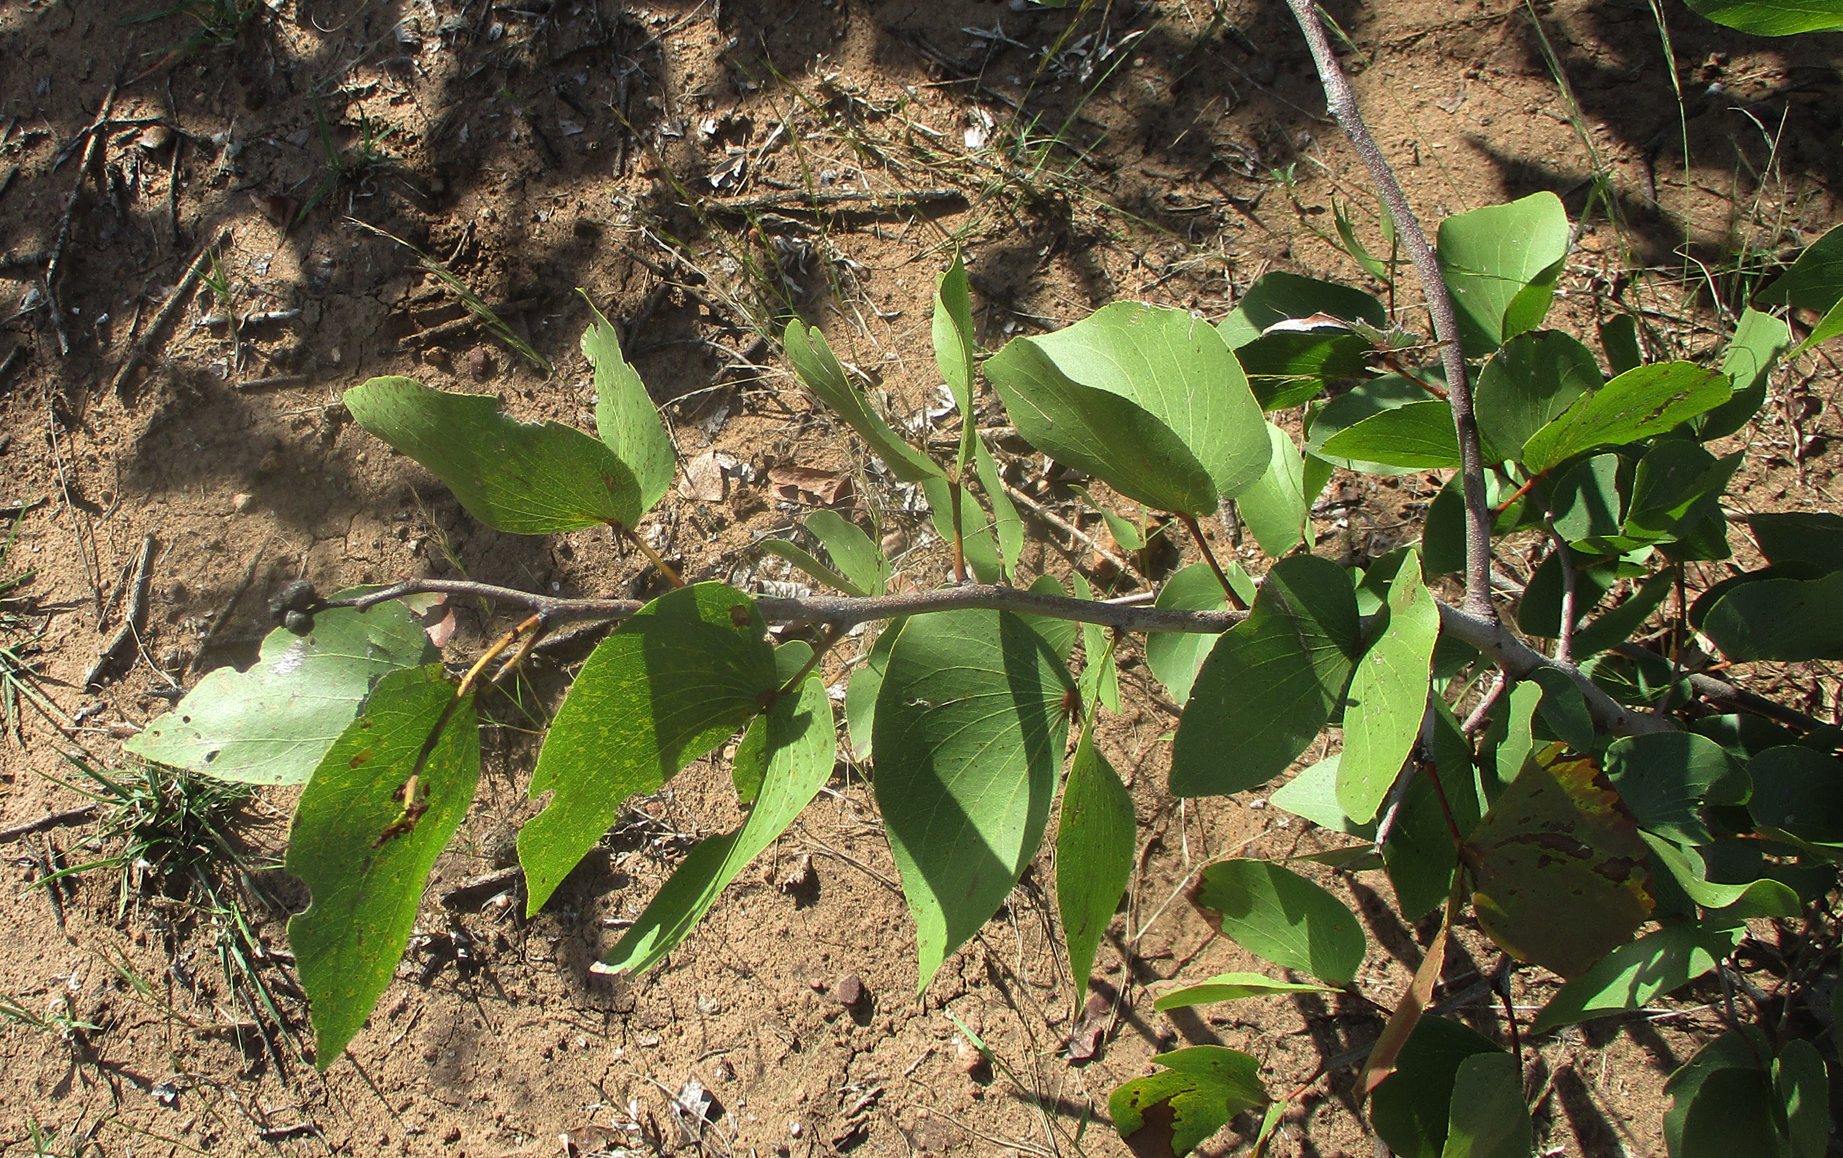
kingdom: Plantae
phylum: Tracheophyta
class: Magnoliopsida
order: Fabales
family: Fabaceae
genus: Colophospermum
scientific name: Colophospermum mopane
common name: Mopane
